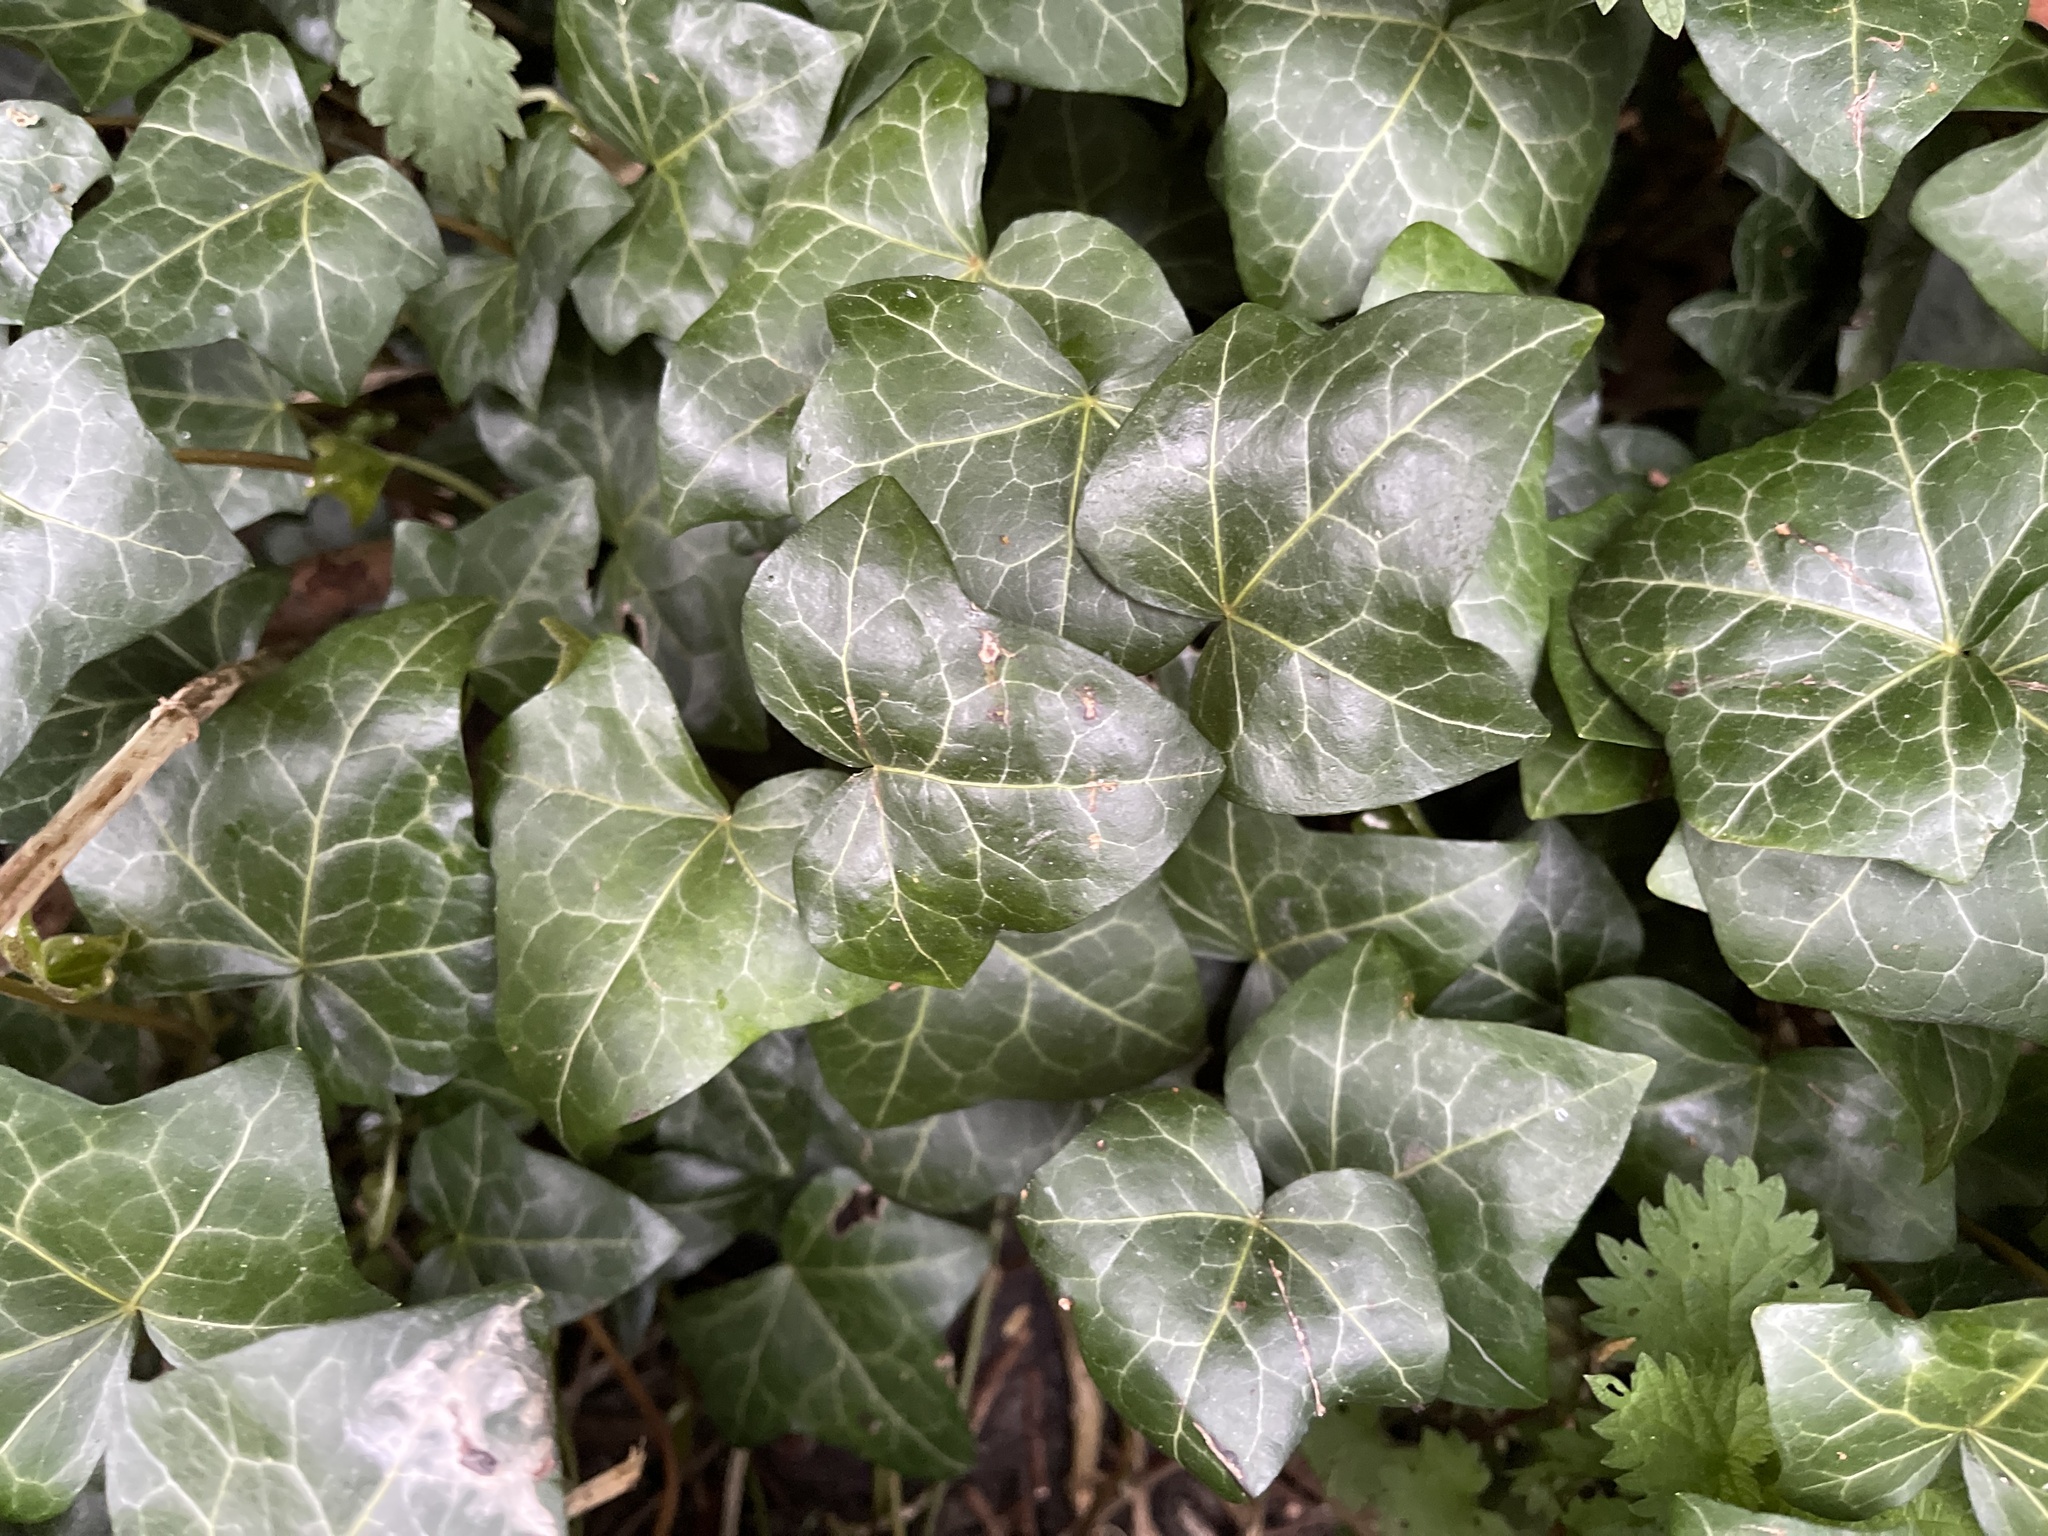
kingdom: Plantae
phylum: Tracheophyta
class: Magnoliopsida
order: Apiales
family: Araliaceae
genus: Hedera
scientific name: Hedera helix
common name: Ivy
